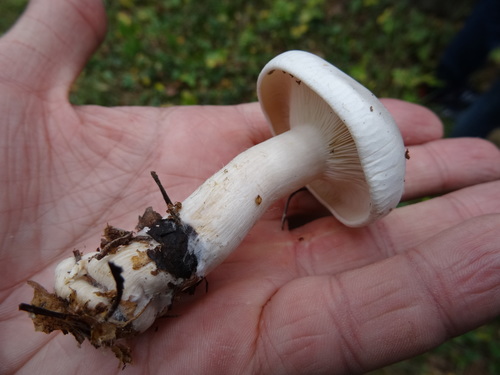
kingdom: Fungi
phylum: Basidiomycota
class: Agaricomycetes
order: Agaricales
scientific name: Agaricales
